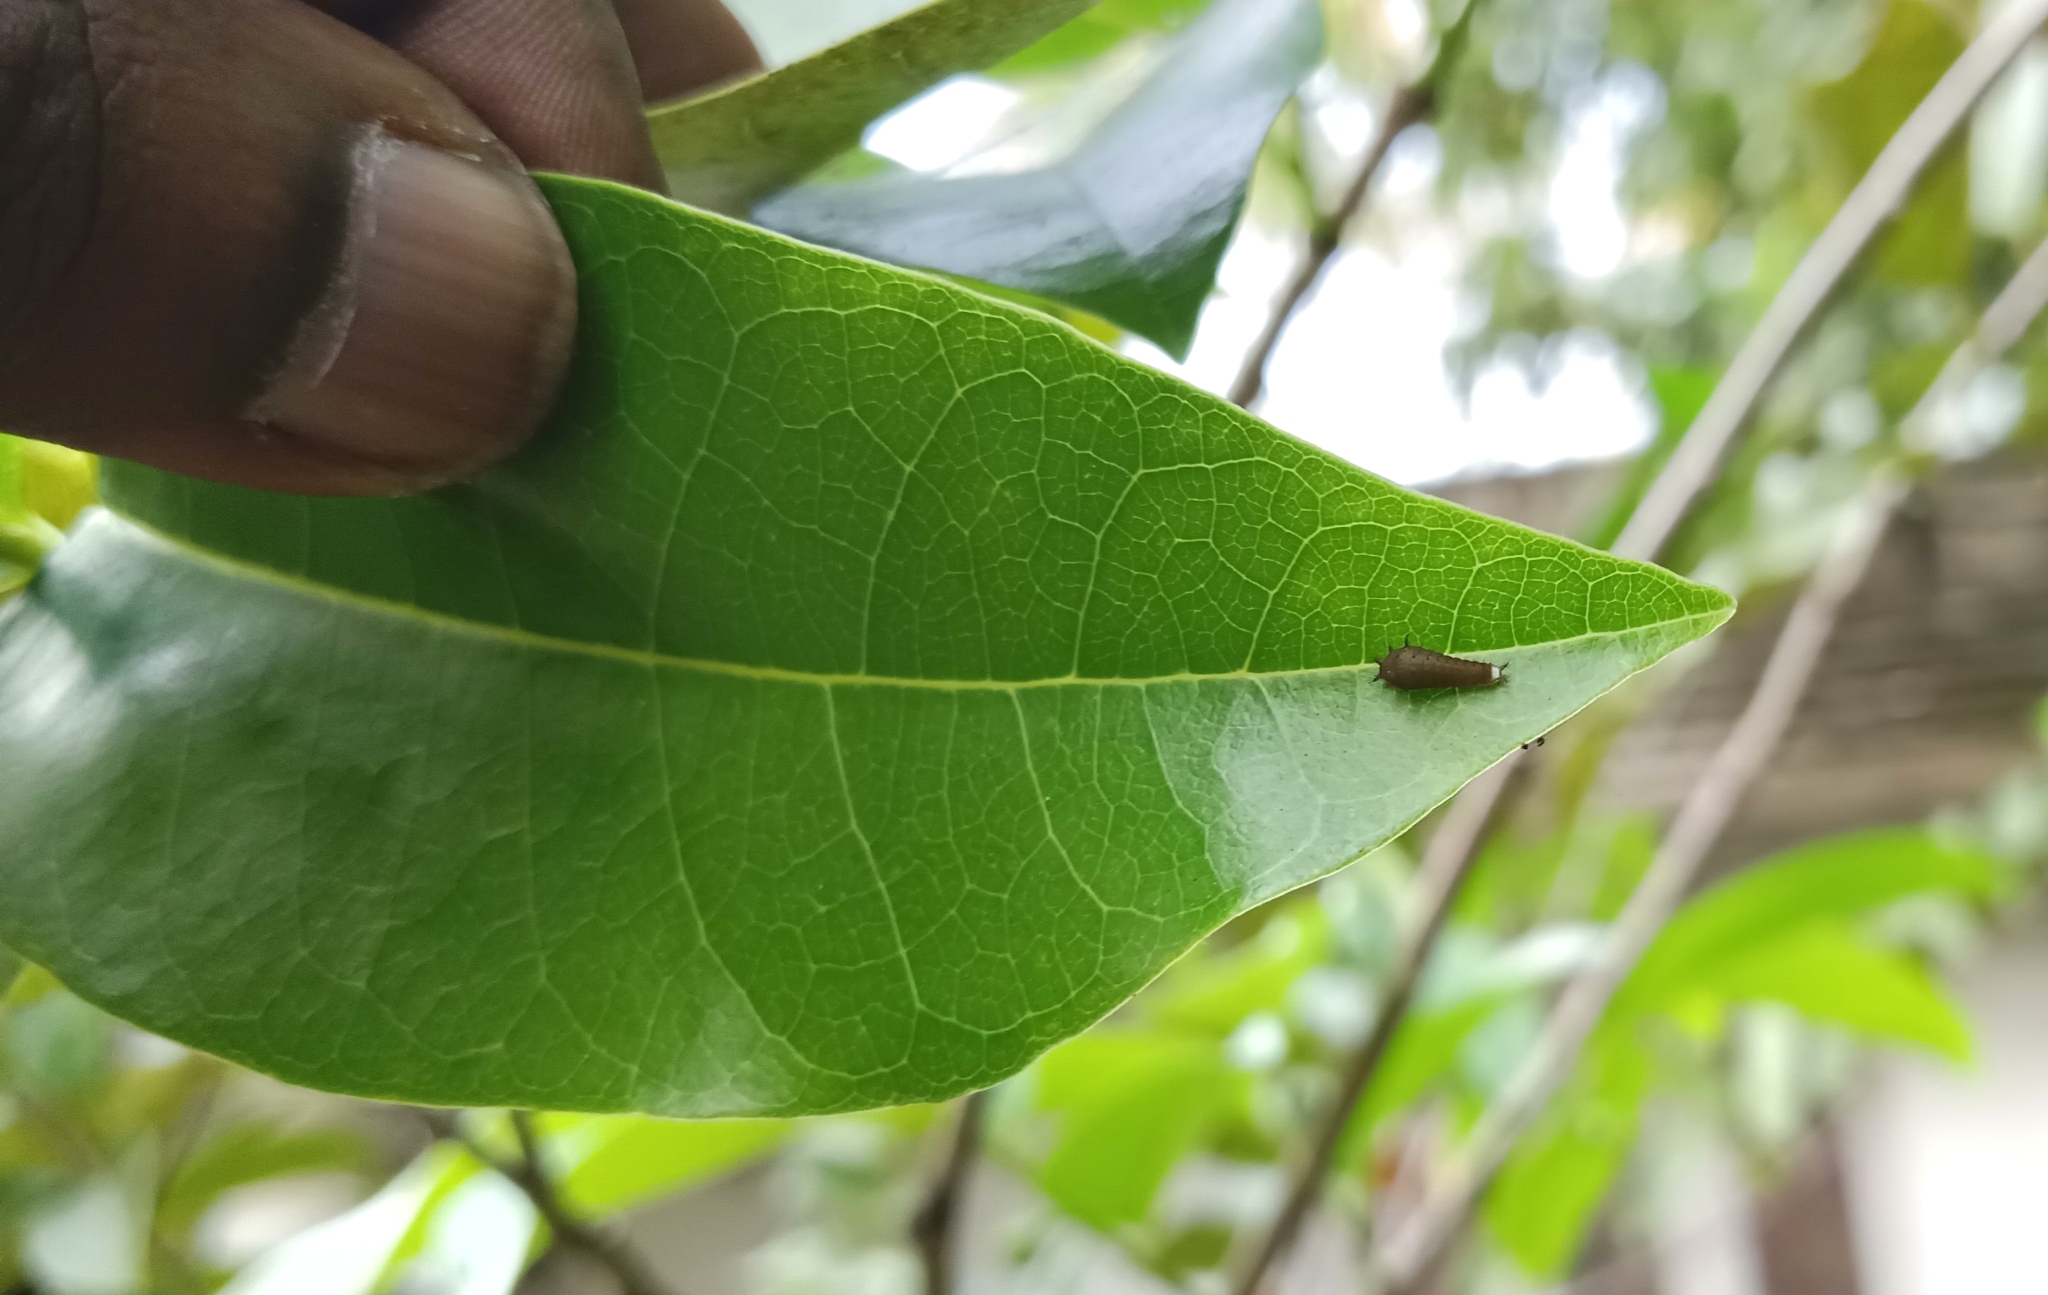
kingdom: Animalia
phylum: Arthropoda
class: Insecta
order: Lepidoptera
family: Papilionidae
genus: Graphium
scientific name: Graphium doson
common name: Common jay
